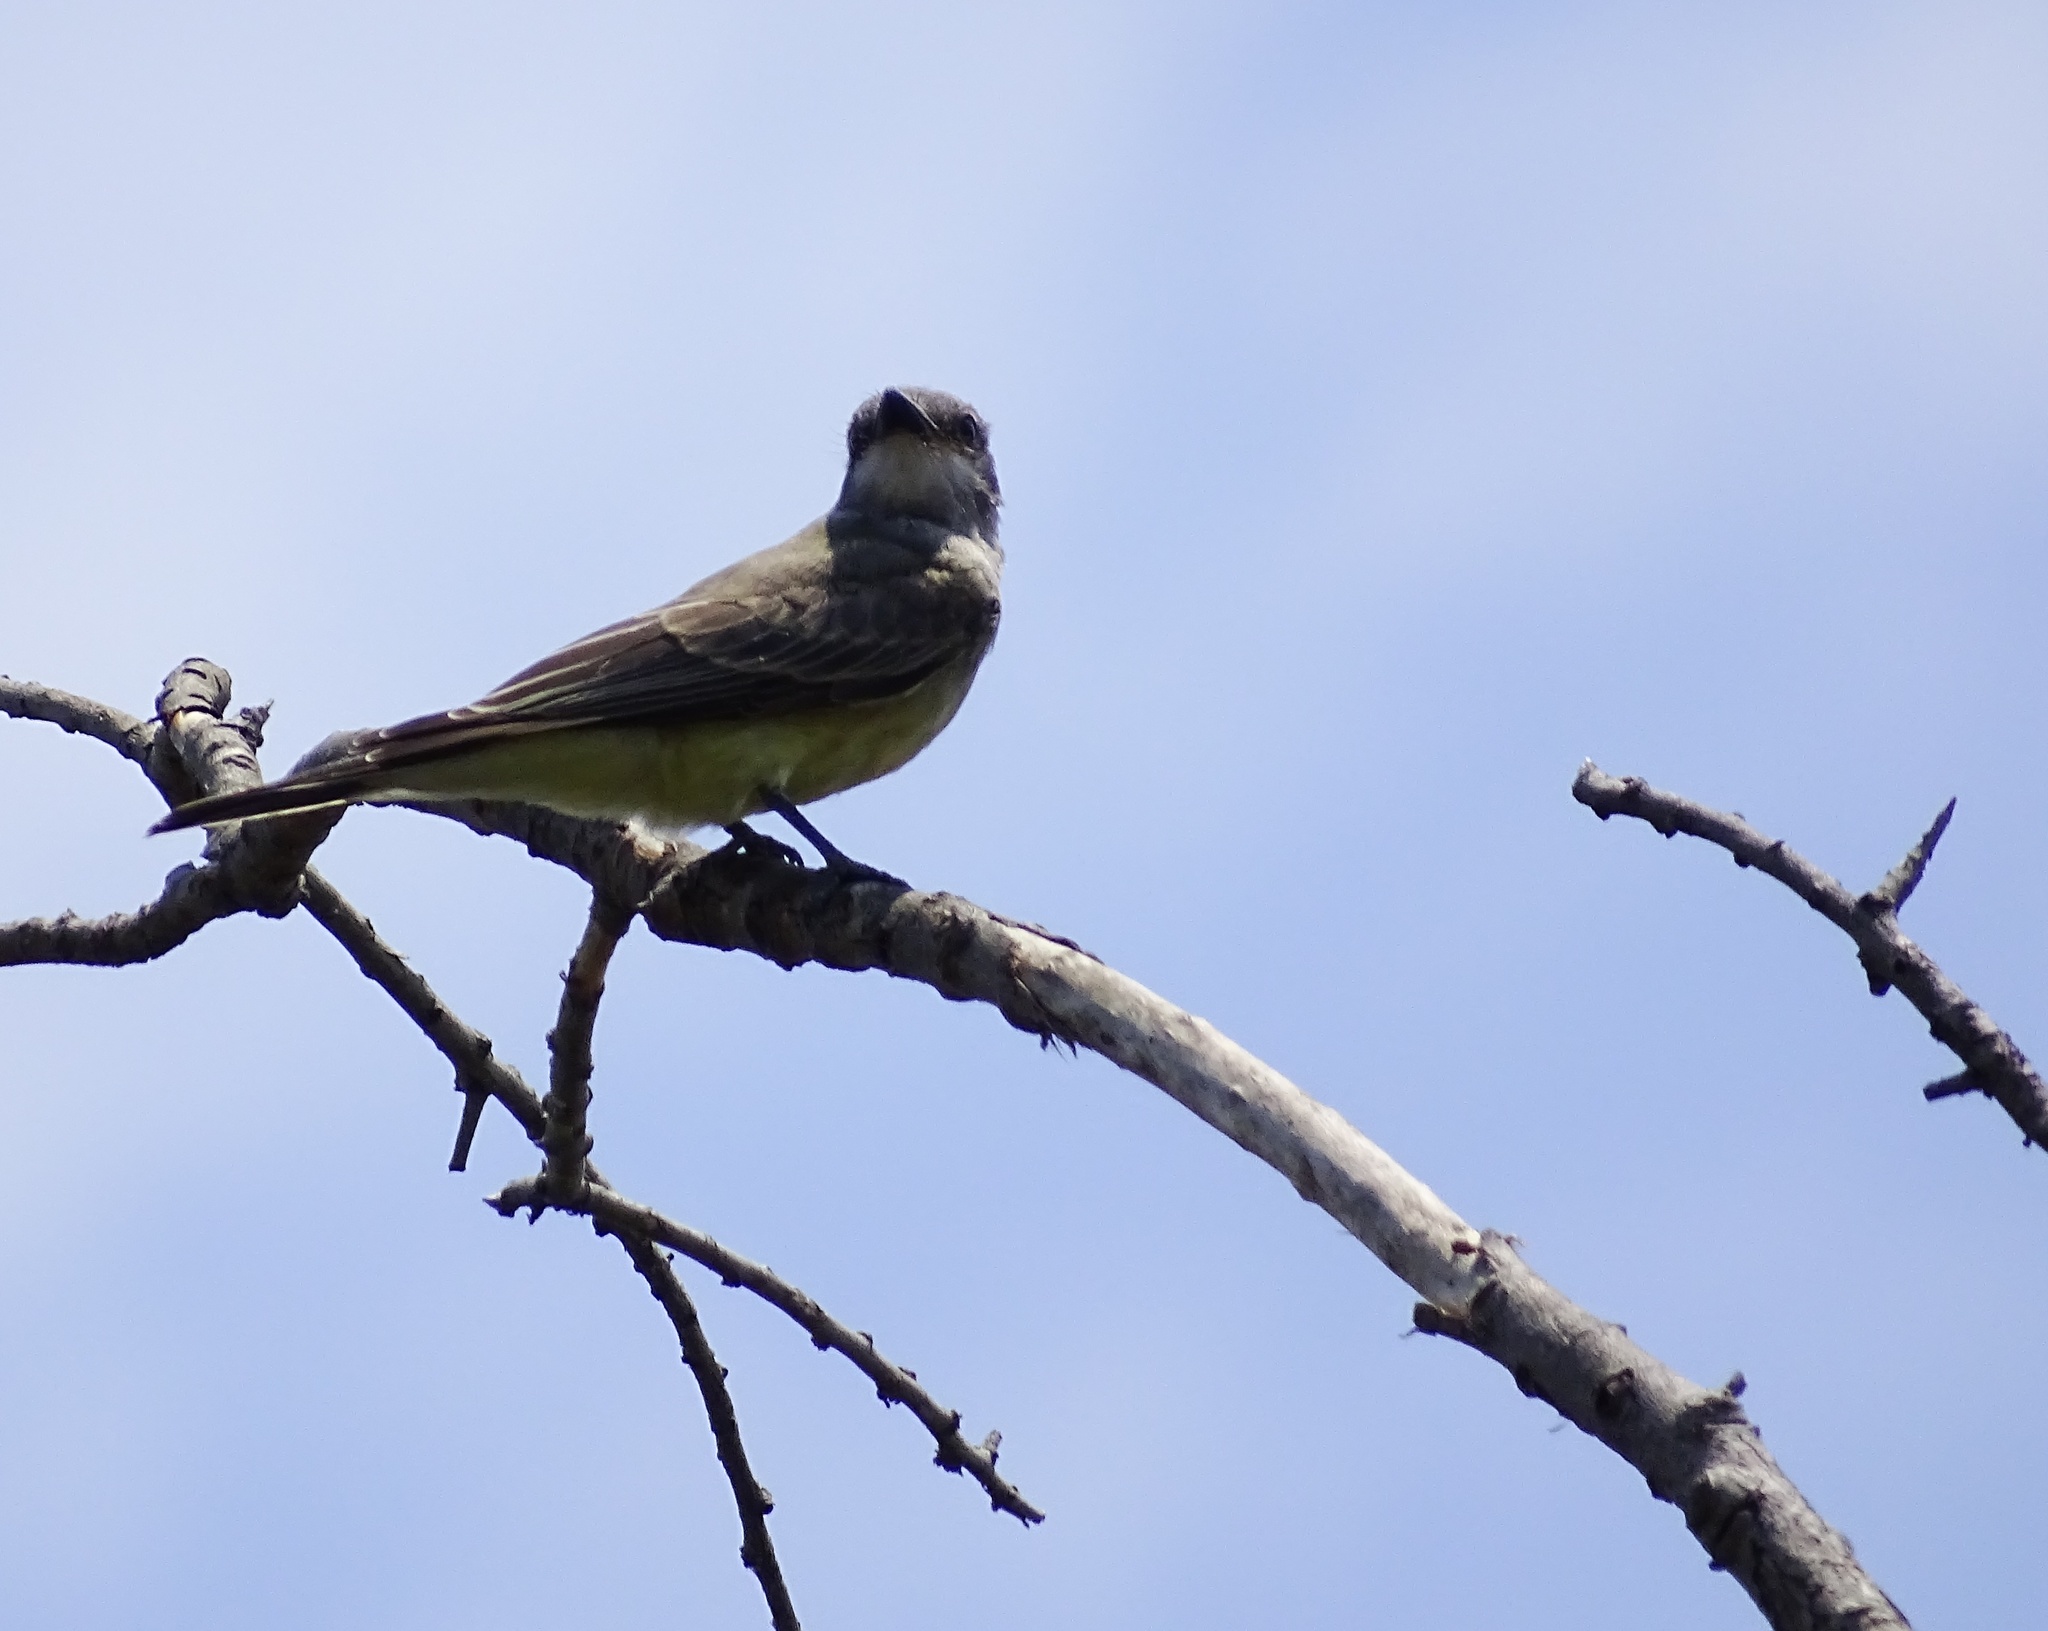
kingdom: Animalia
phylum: Chordata
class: Aves
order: Passeriformes
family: Tyrannidae
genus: Tyrannus
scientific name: Tyrannus verticalis
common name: Western kingbird
